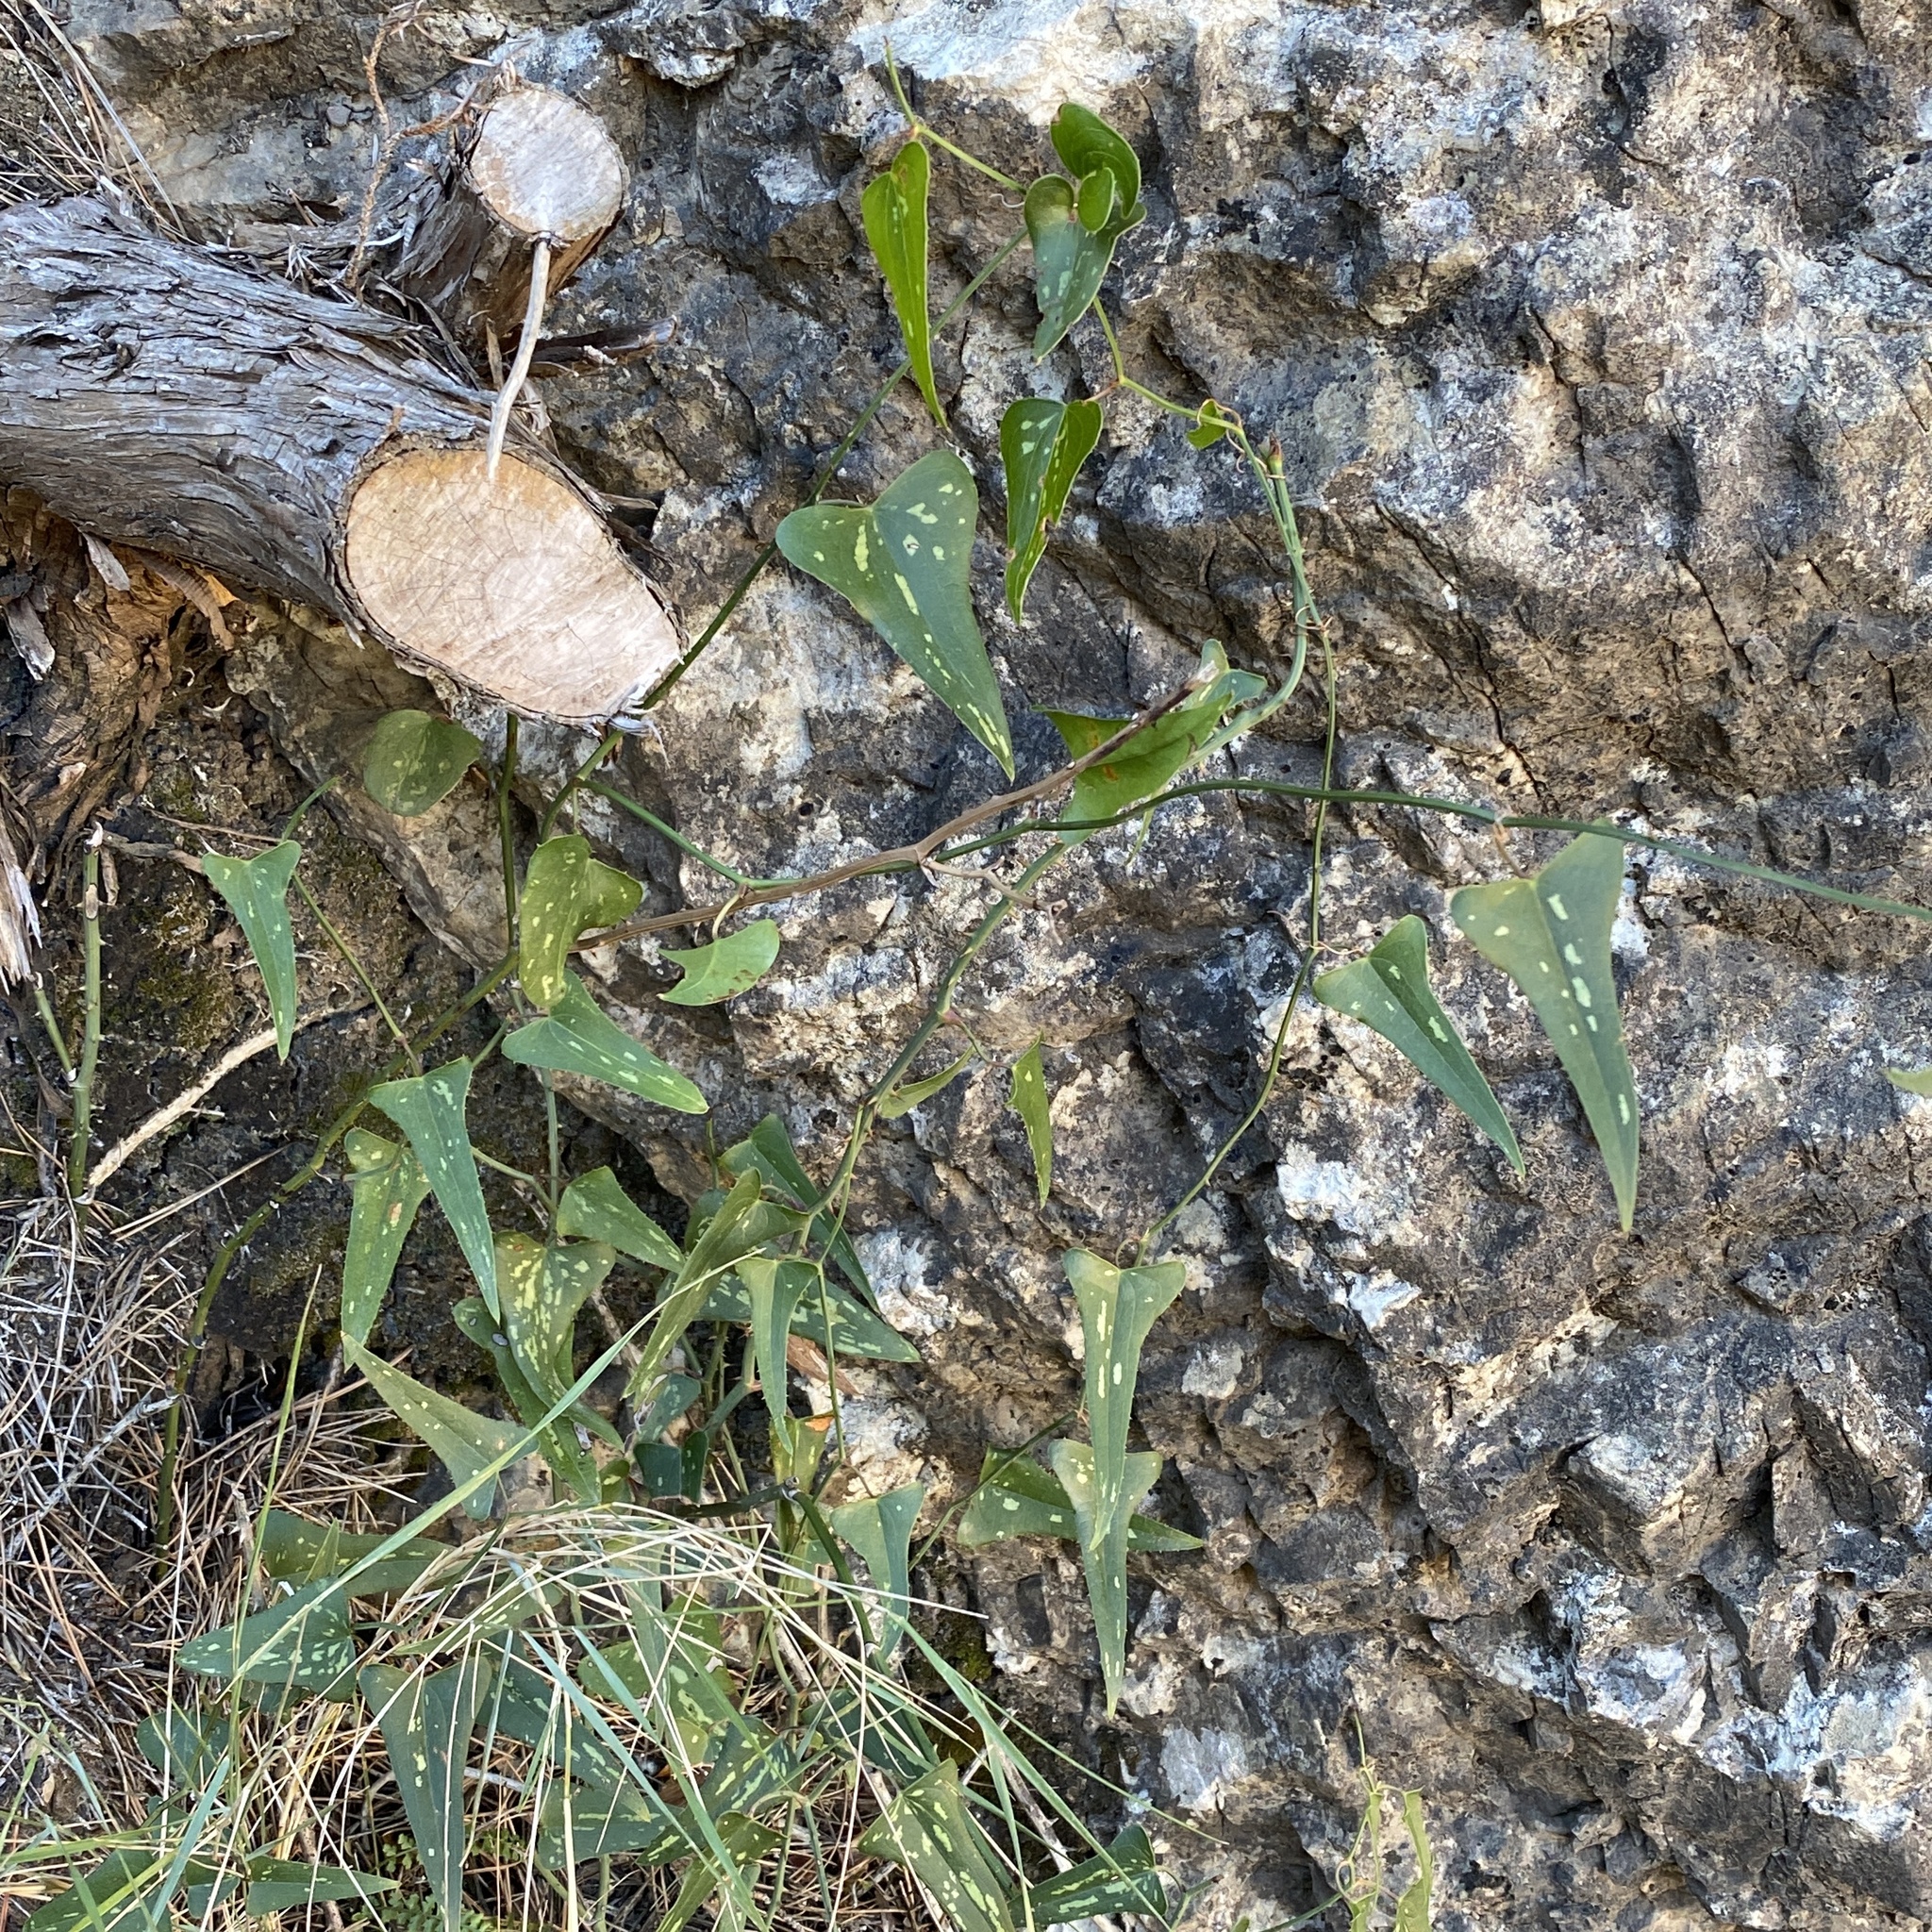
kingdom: Plantae
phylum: Tracheophyta
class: Liliopsida
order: Liliales
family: Smilacaceae
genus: Smilax
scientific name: Smilax aspera
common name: Common smilax
